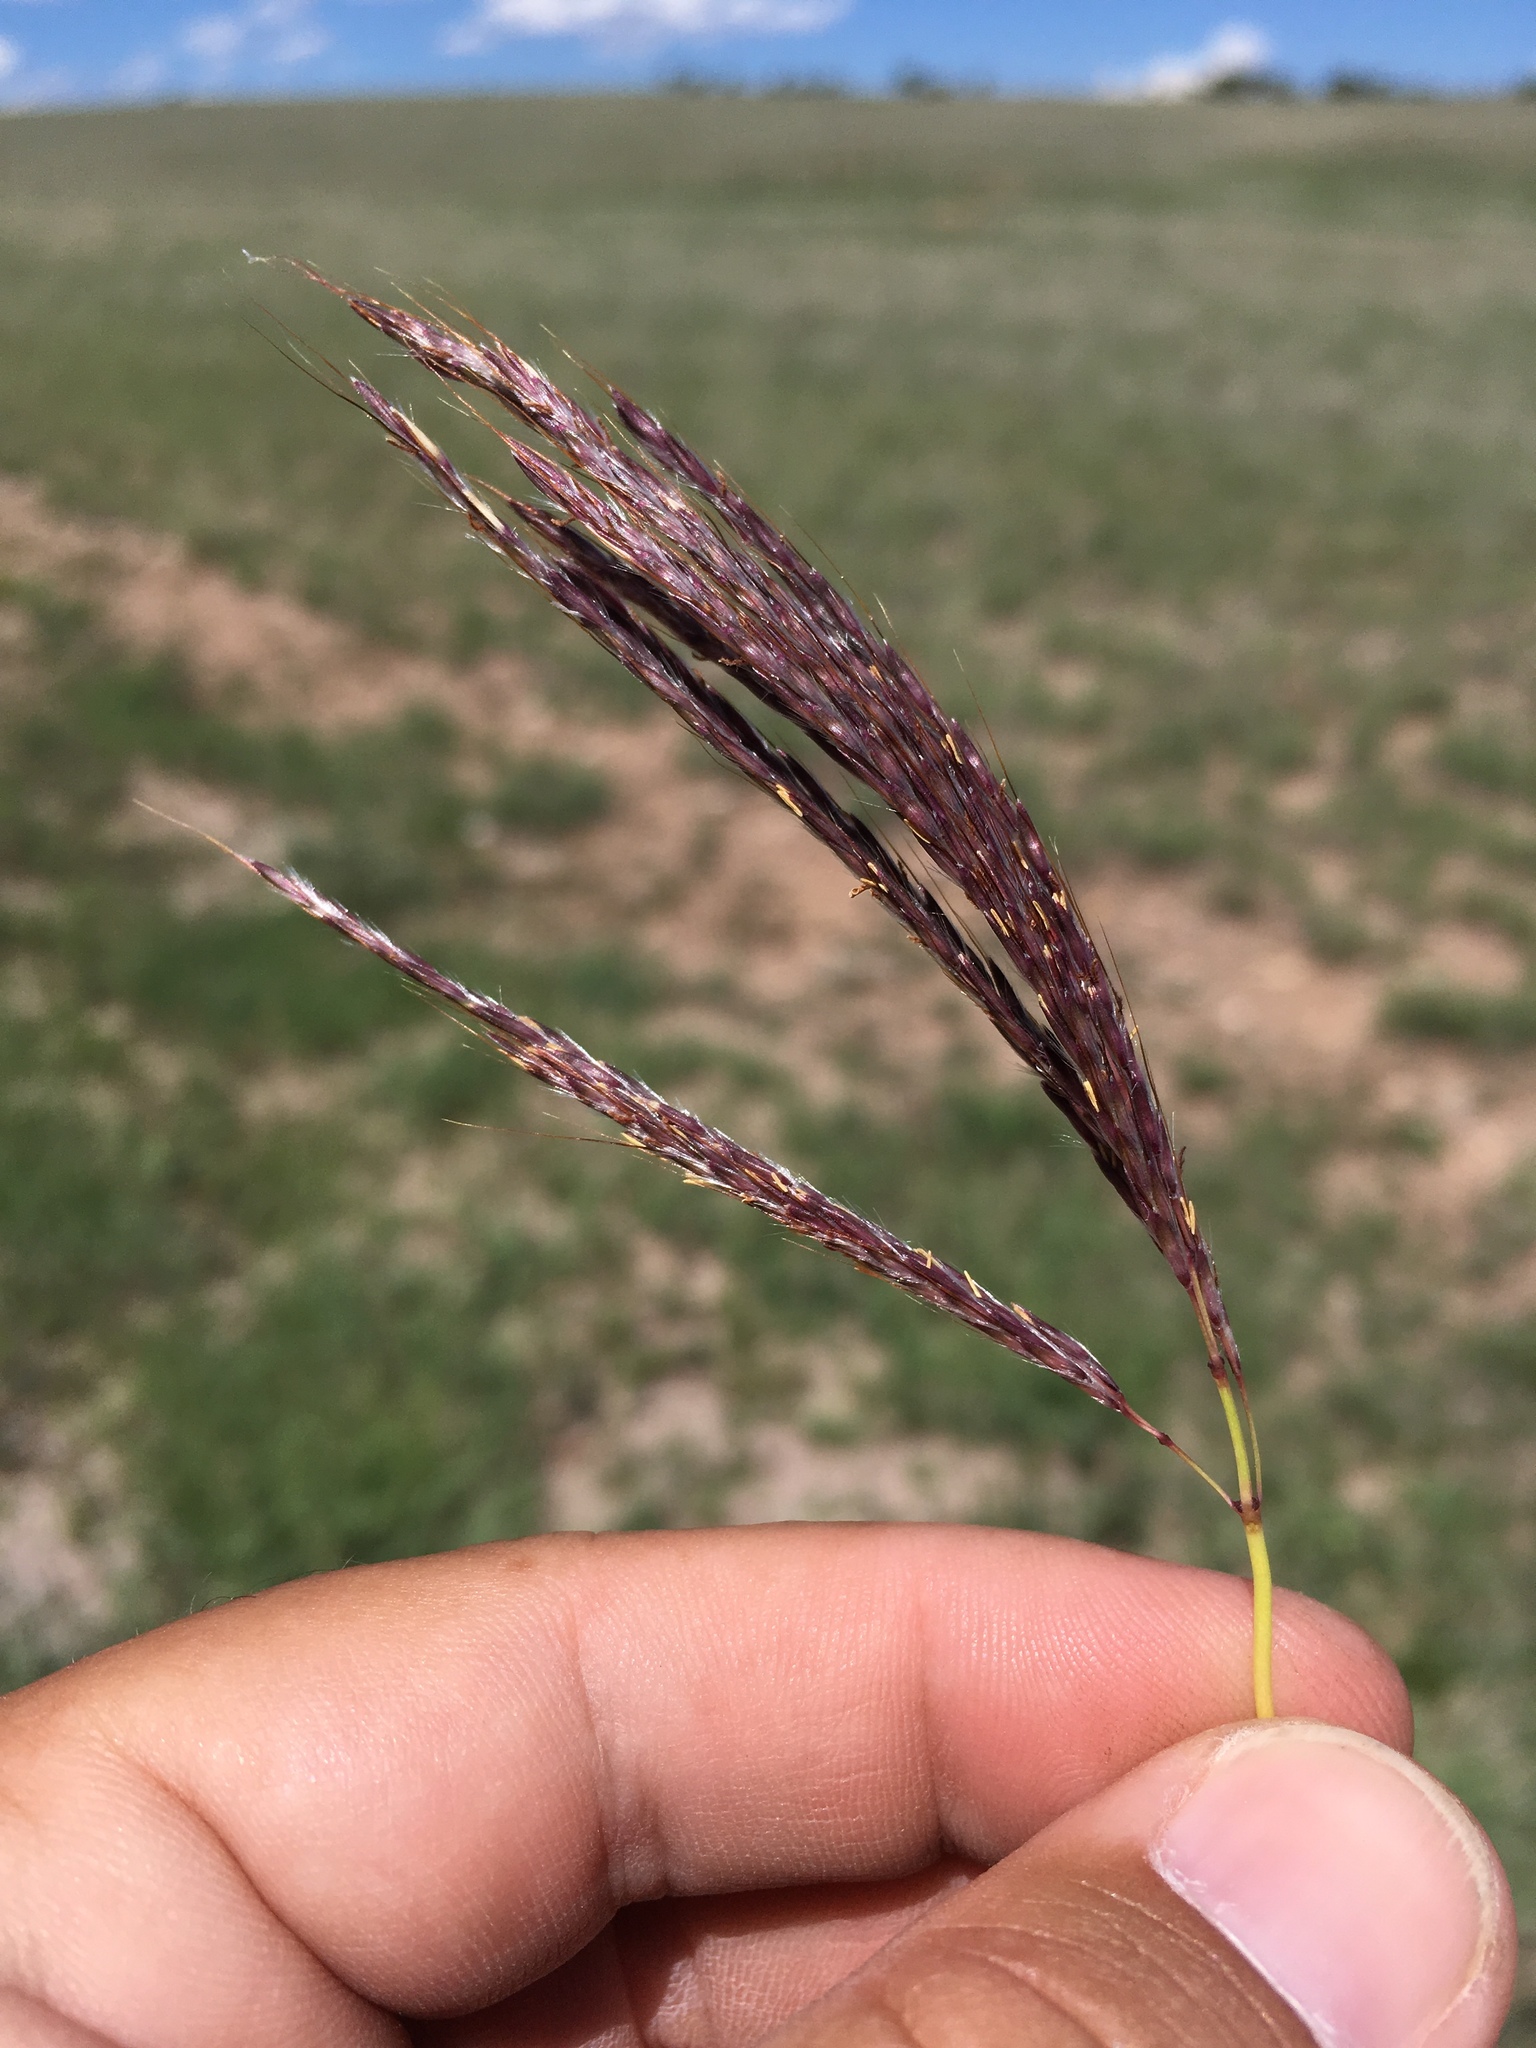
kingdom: Plantae
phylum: Tracheophyta
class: Liliopsida
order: Poales
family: Poaceae
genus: Bothriochloa
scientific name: Bothriochloa ischaemum
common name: Yellow bluestem
